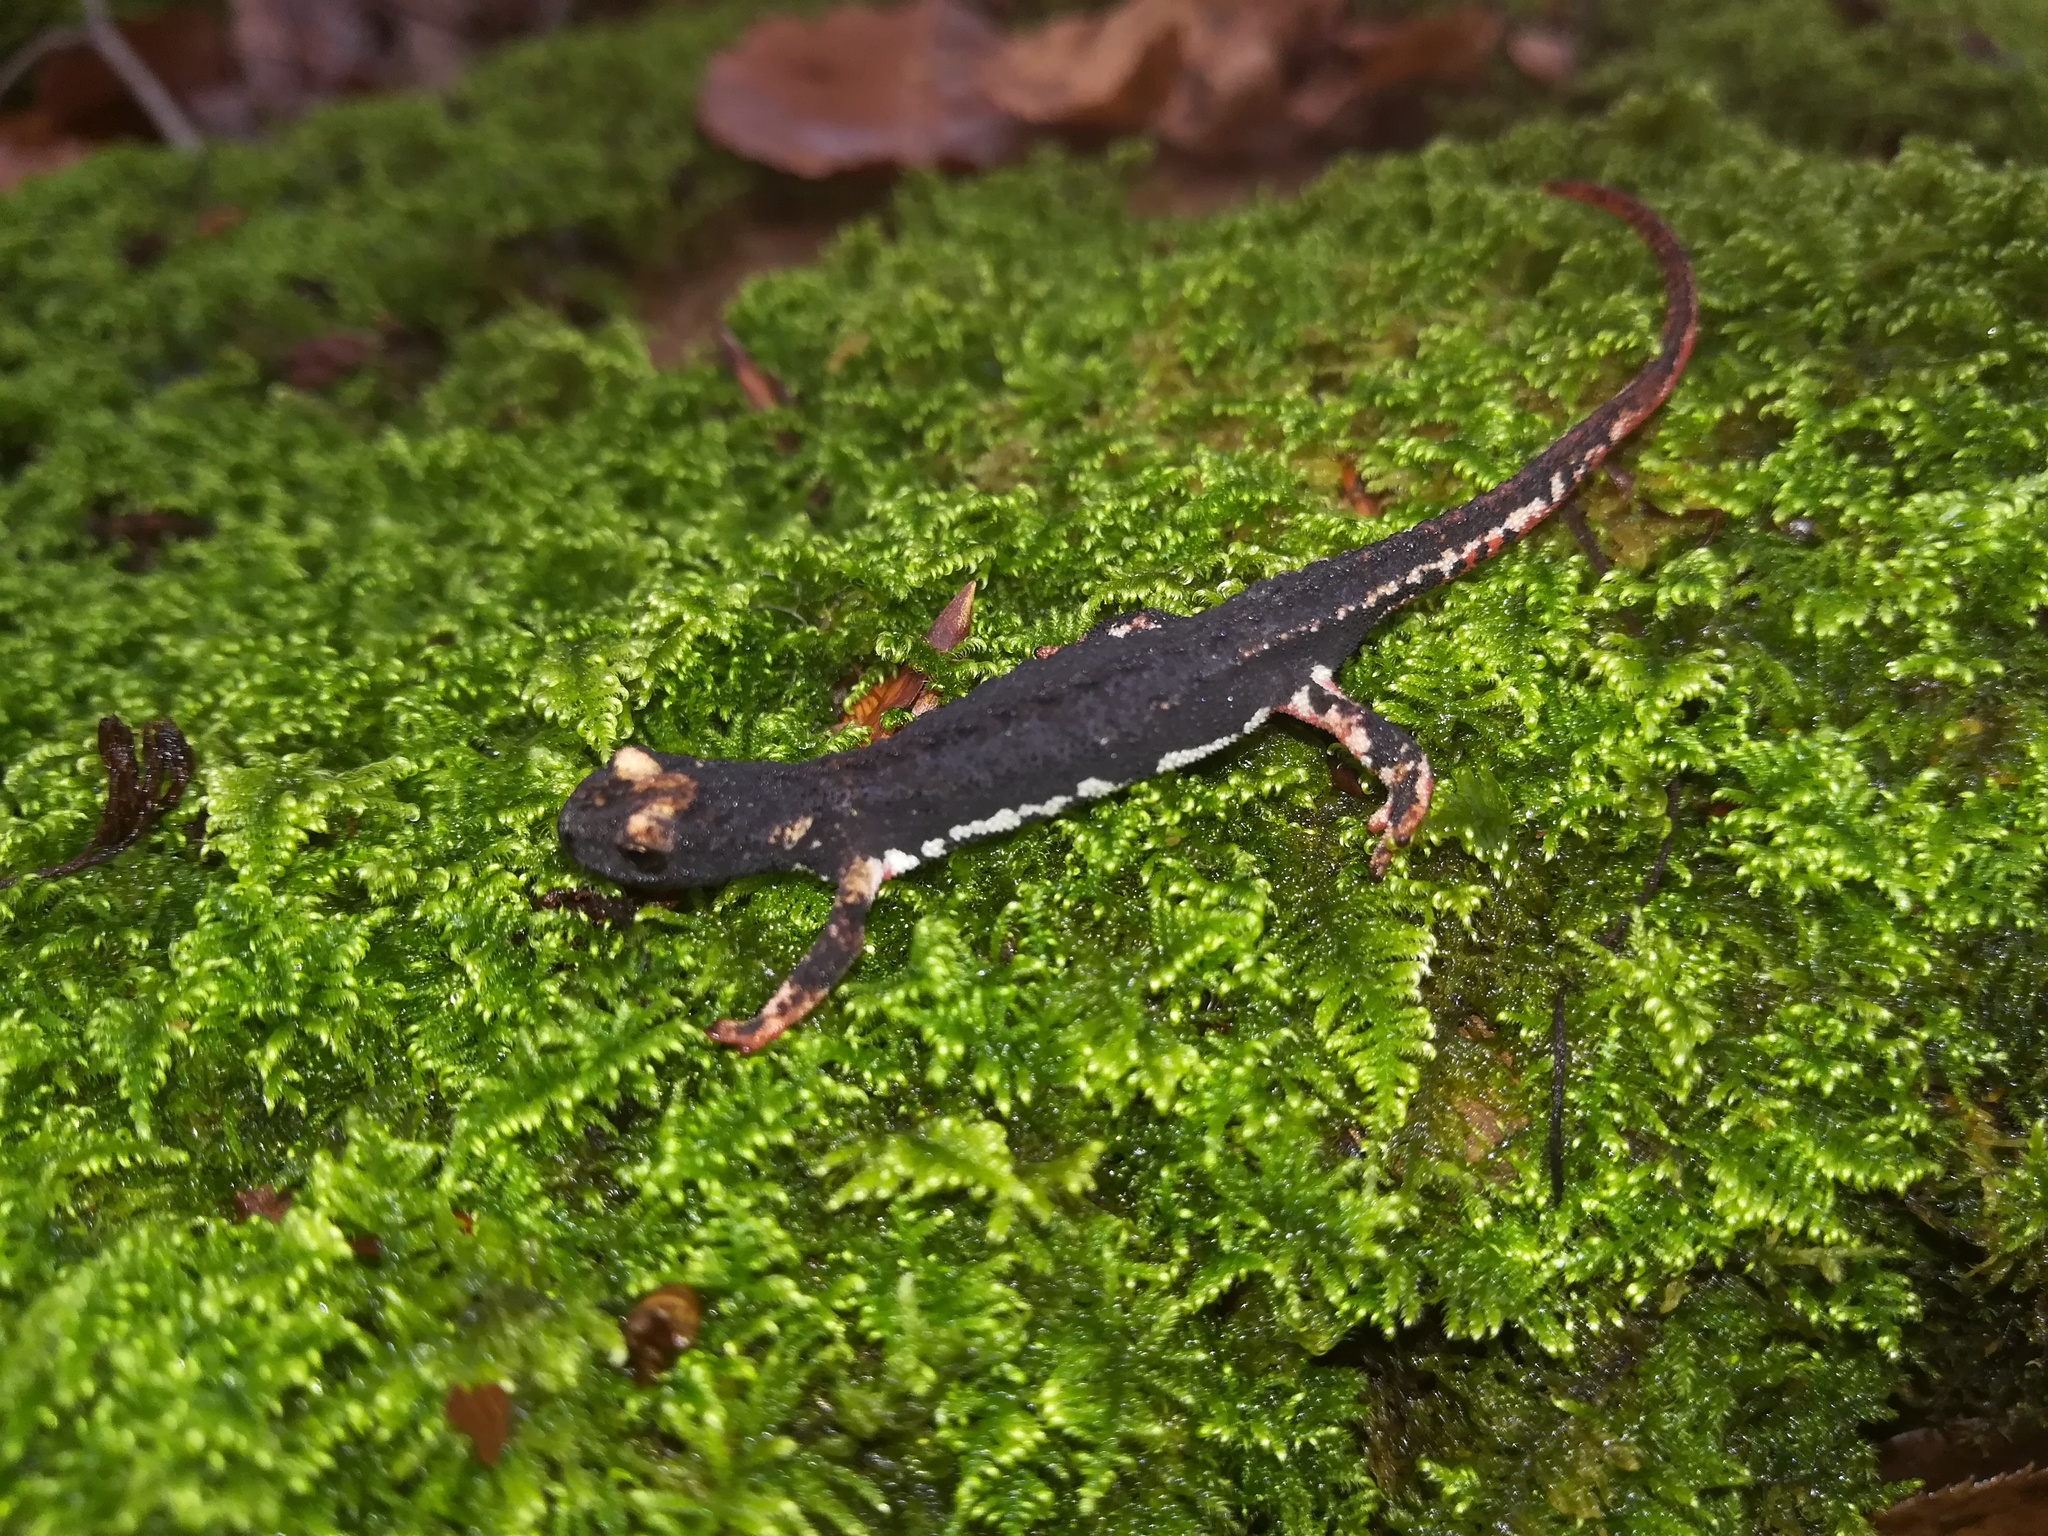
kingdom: Animalia
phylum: Chordata
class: Amphibia
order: Caudata
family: Salamandridae
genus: Salamandrina
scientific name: Salamandrina perspicillata
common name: Northern spectacled salamander
